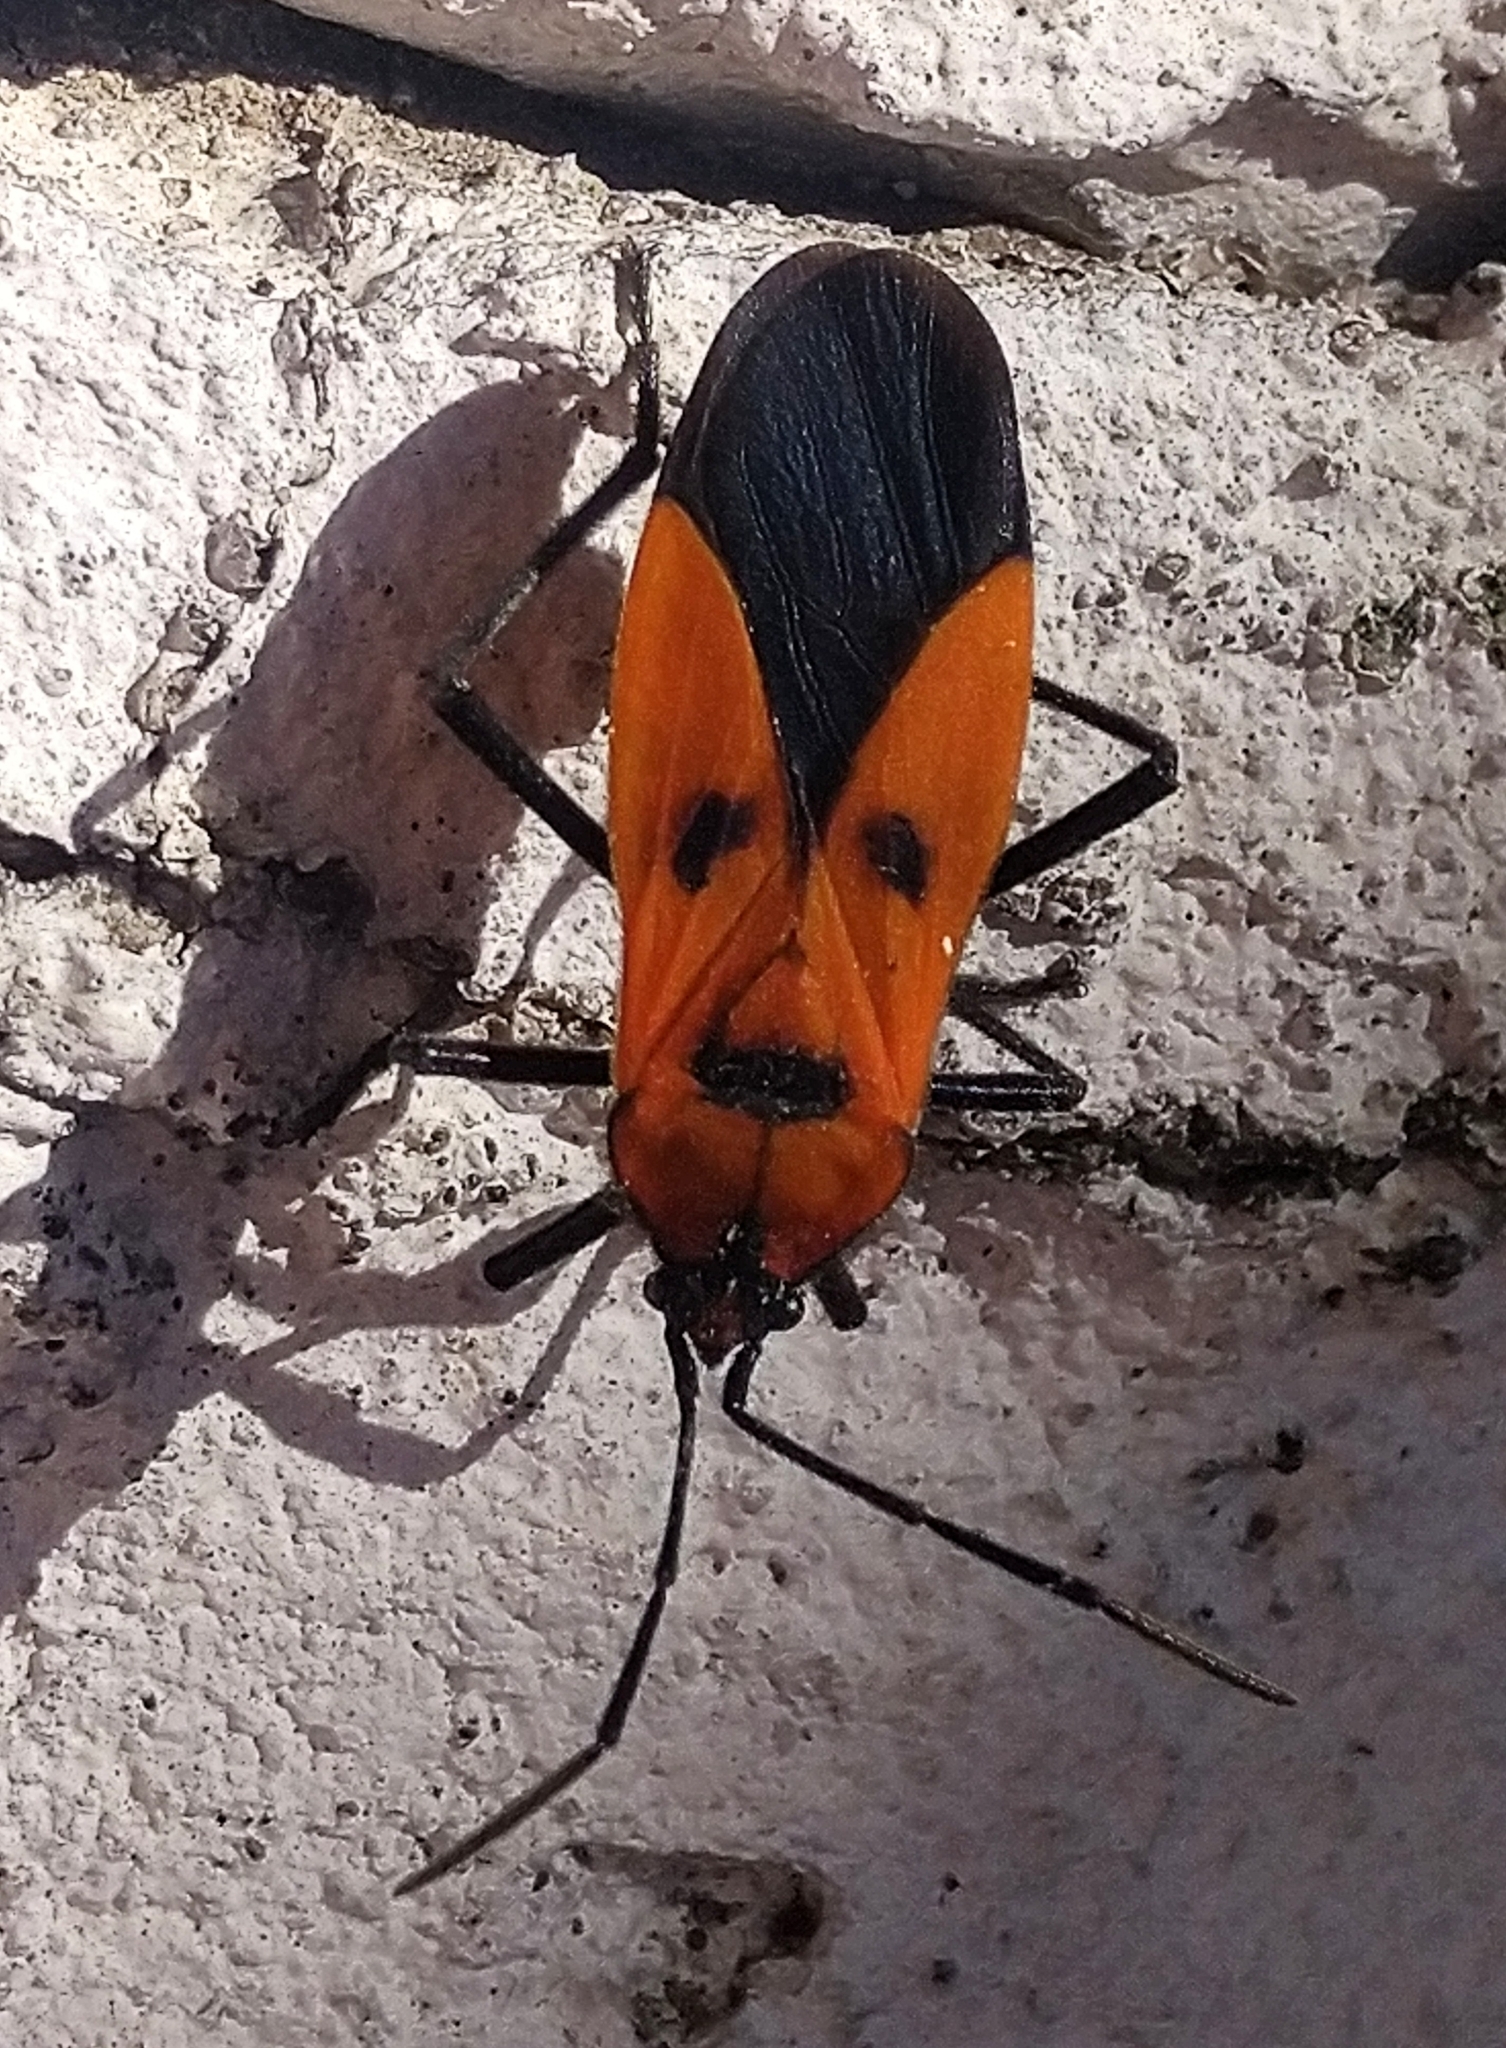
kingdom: Animalia
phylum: Arthropoda
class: Insecta
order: Hemiptera
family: Lygaeidae
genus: Oncopeltus
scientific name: Oncopeltus varicolor
